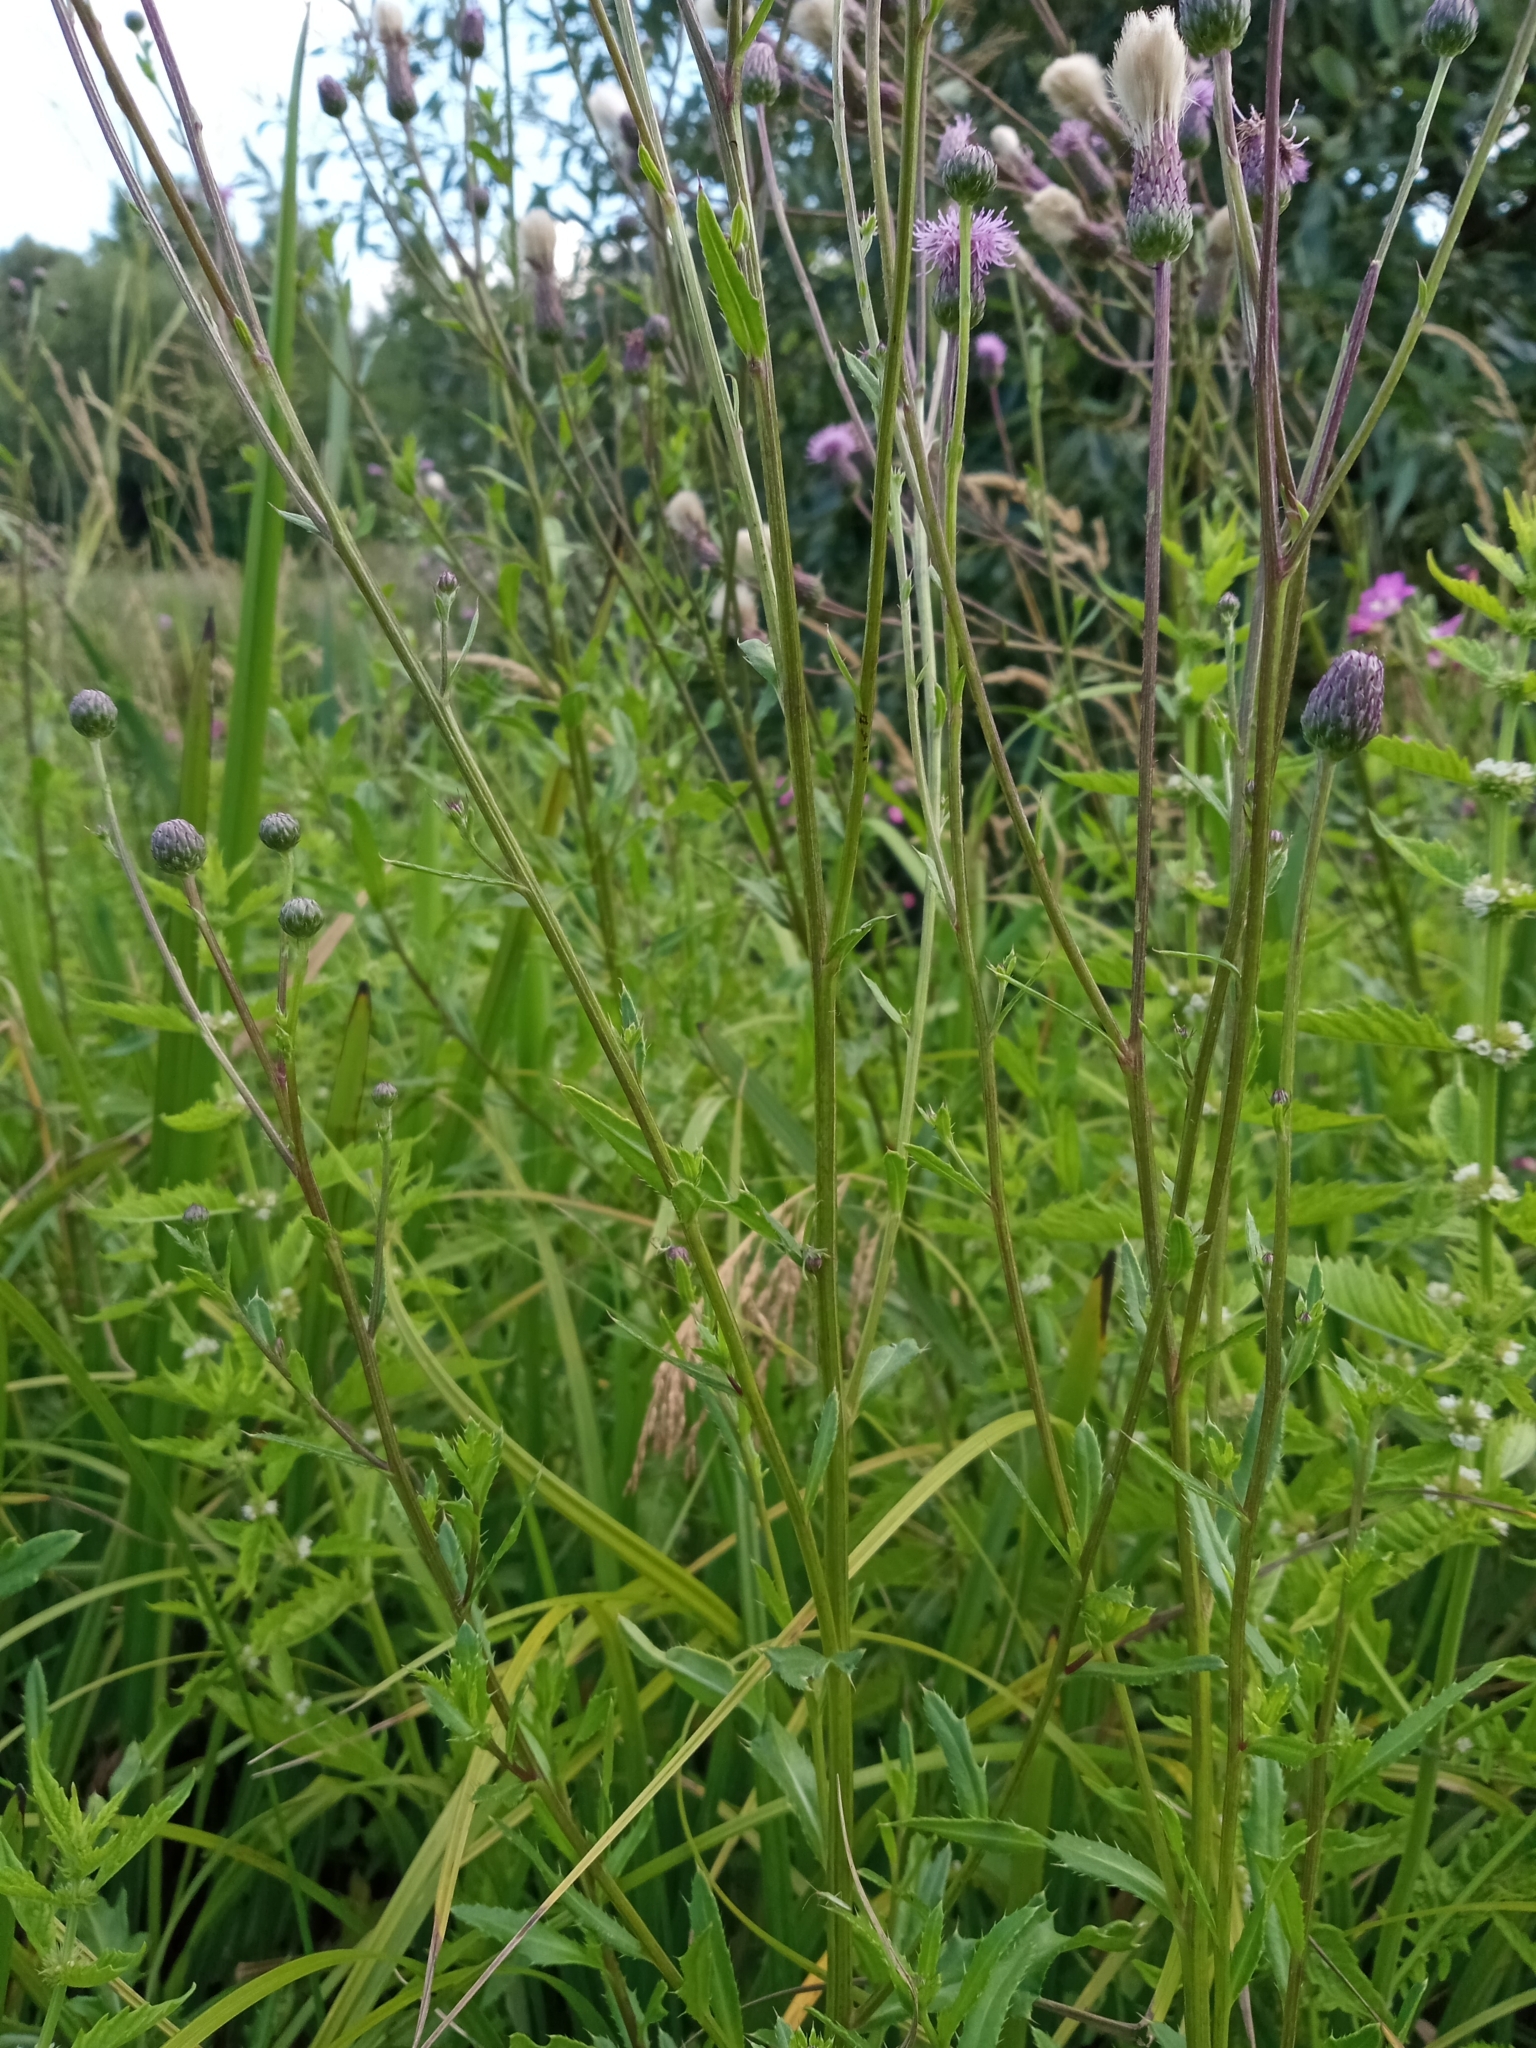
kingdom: Plantae
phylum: Tracheophyta
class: Magnoliopsida
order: Asterales
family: Asteraceae
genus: Cirsium
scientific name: Cirsium arvense
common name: Creeping thistle
